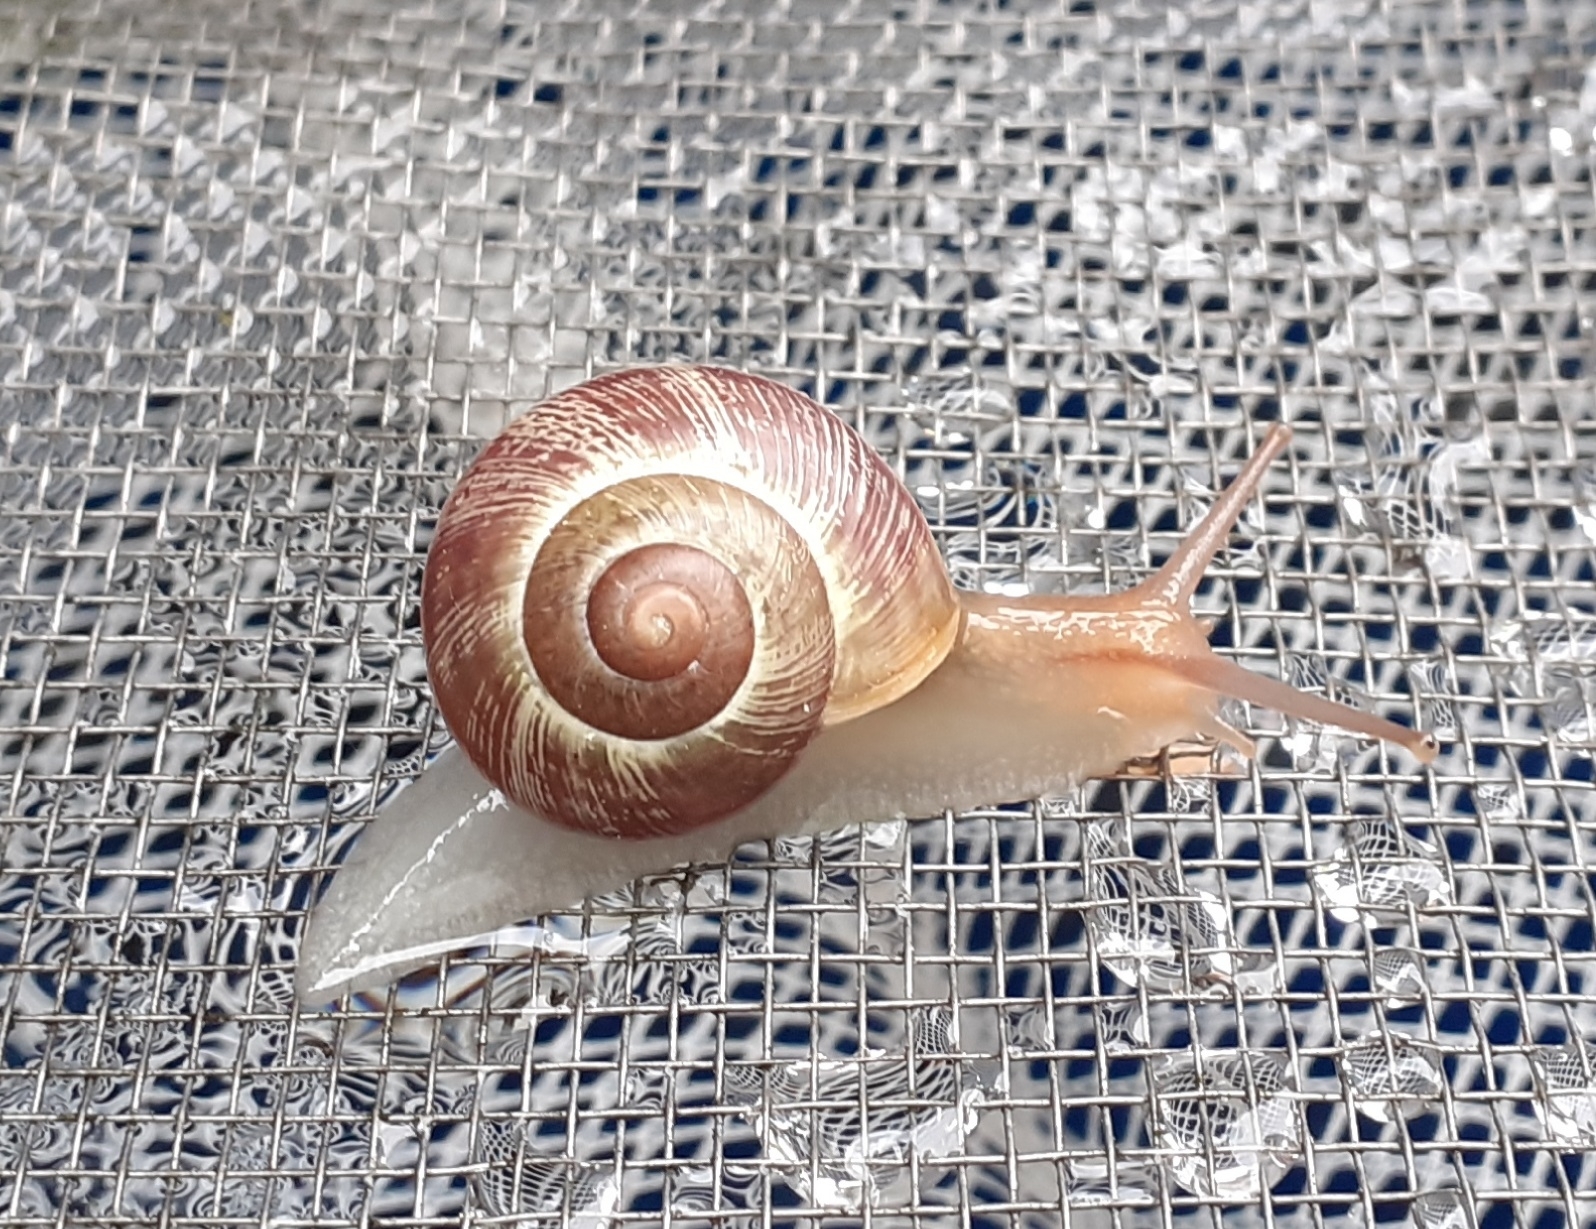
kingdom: Animalia
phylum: Mollusca
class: Gastropoda
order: Stylommatophora
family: Helicidae
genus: Cepaea
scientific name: Cepaea nemoralis
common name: Grovesnail
